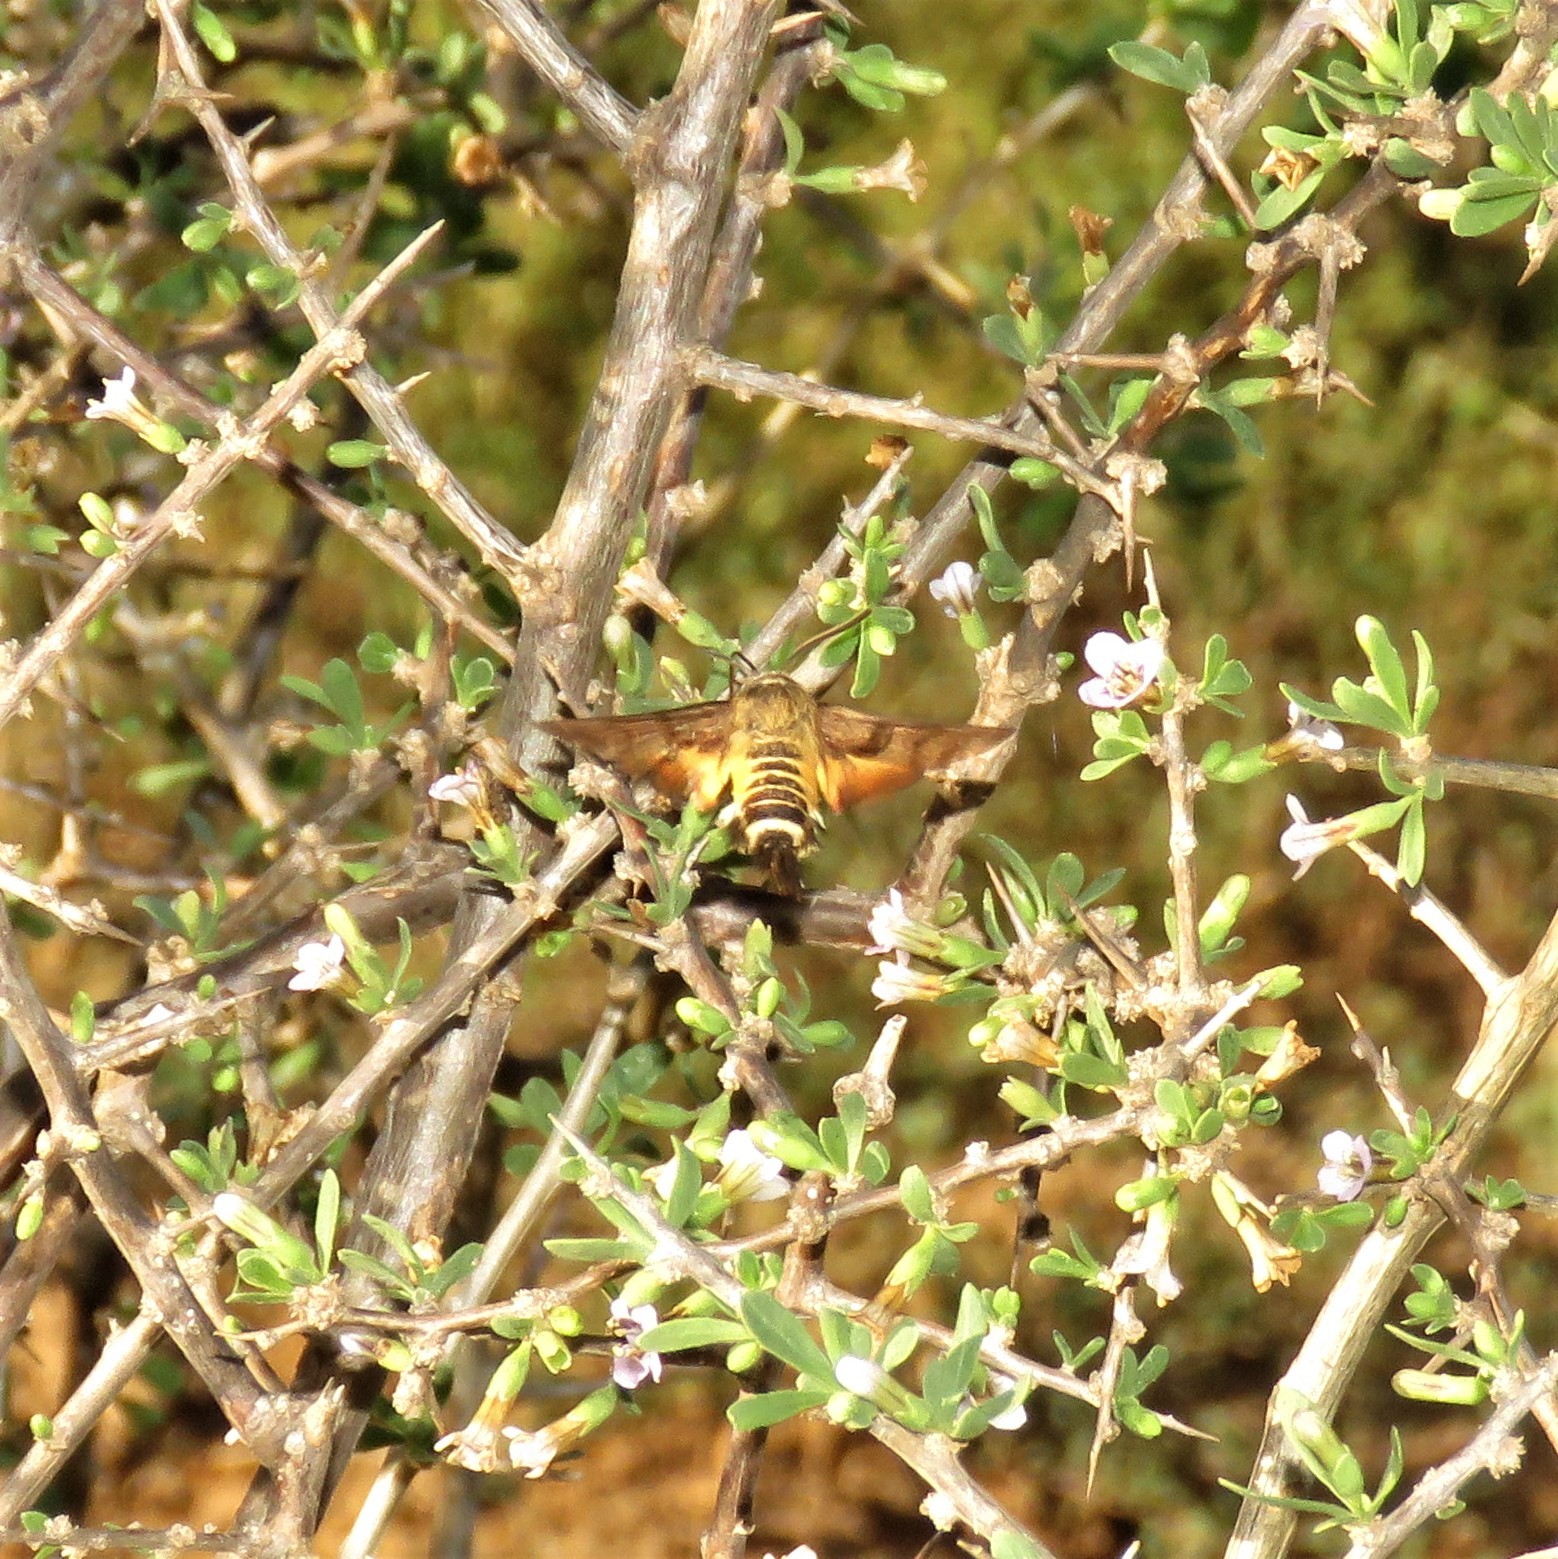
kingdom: Animalia
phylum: Arthropoda
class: Insecta
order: Lepidoptera
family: Sphingidae
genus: Macroglossum
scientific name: Macroglossum trochilus
